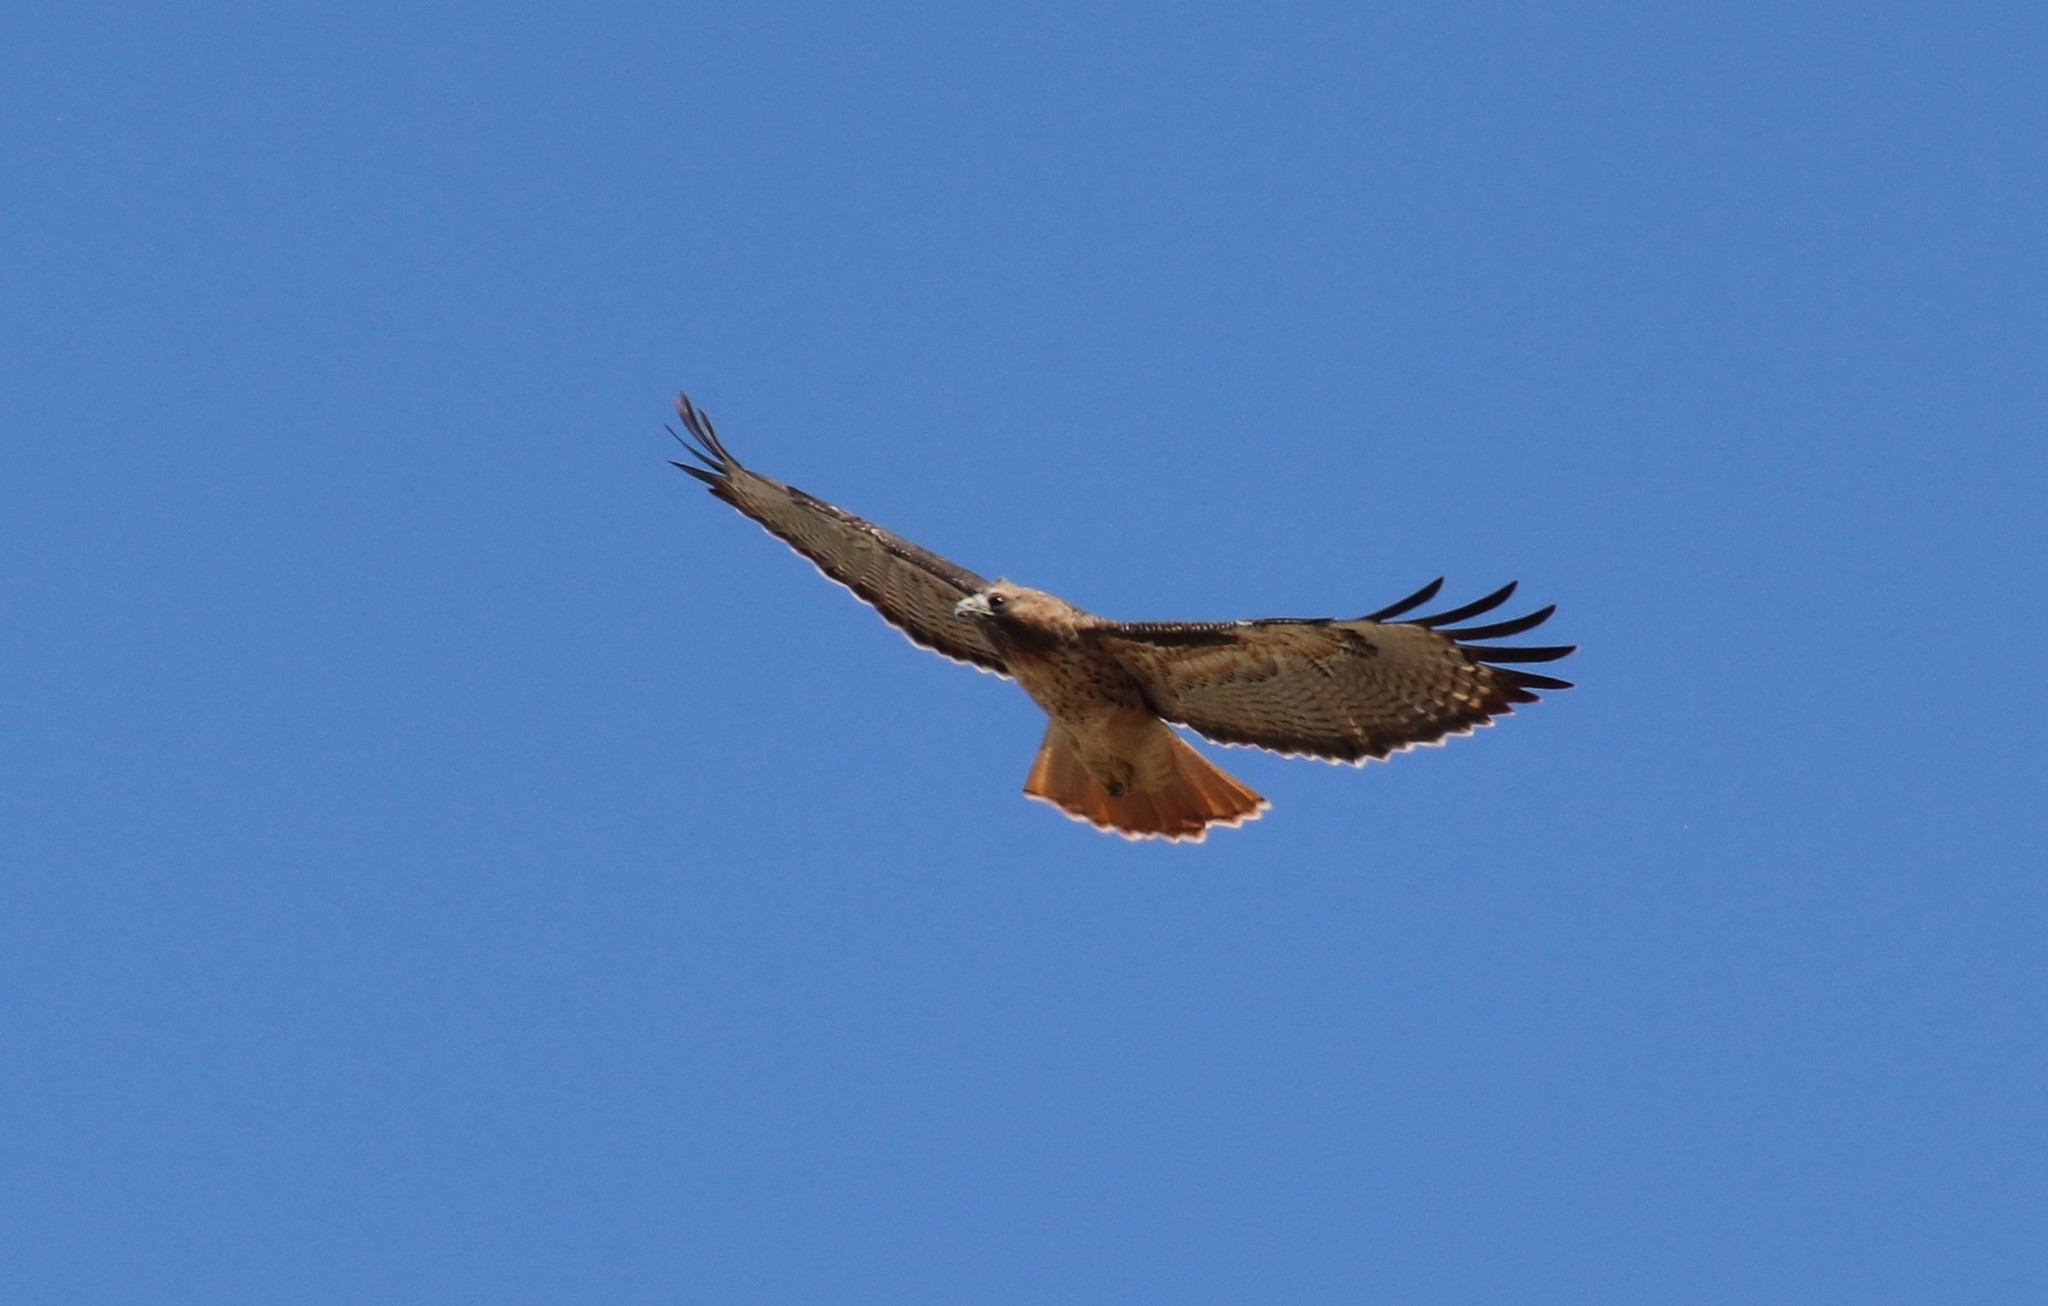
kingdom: Animalia
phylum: Chordata
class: Aves
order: Accipitriformes
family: Accipitridae
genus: Buteo
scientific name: Buteo jamaicensis
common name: Red-tailed hawk
